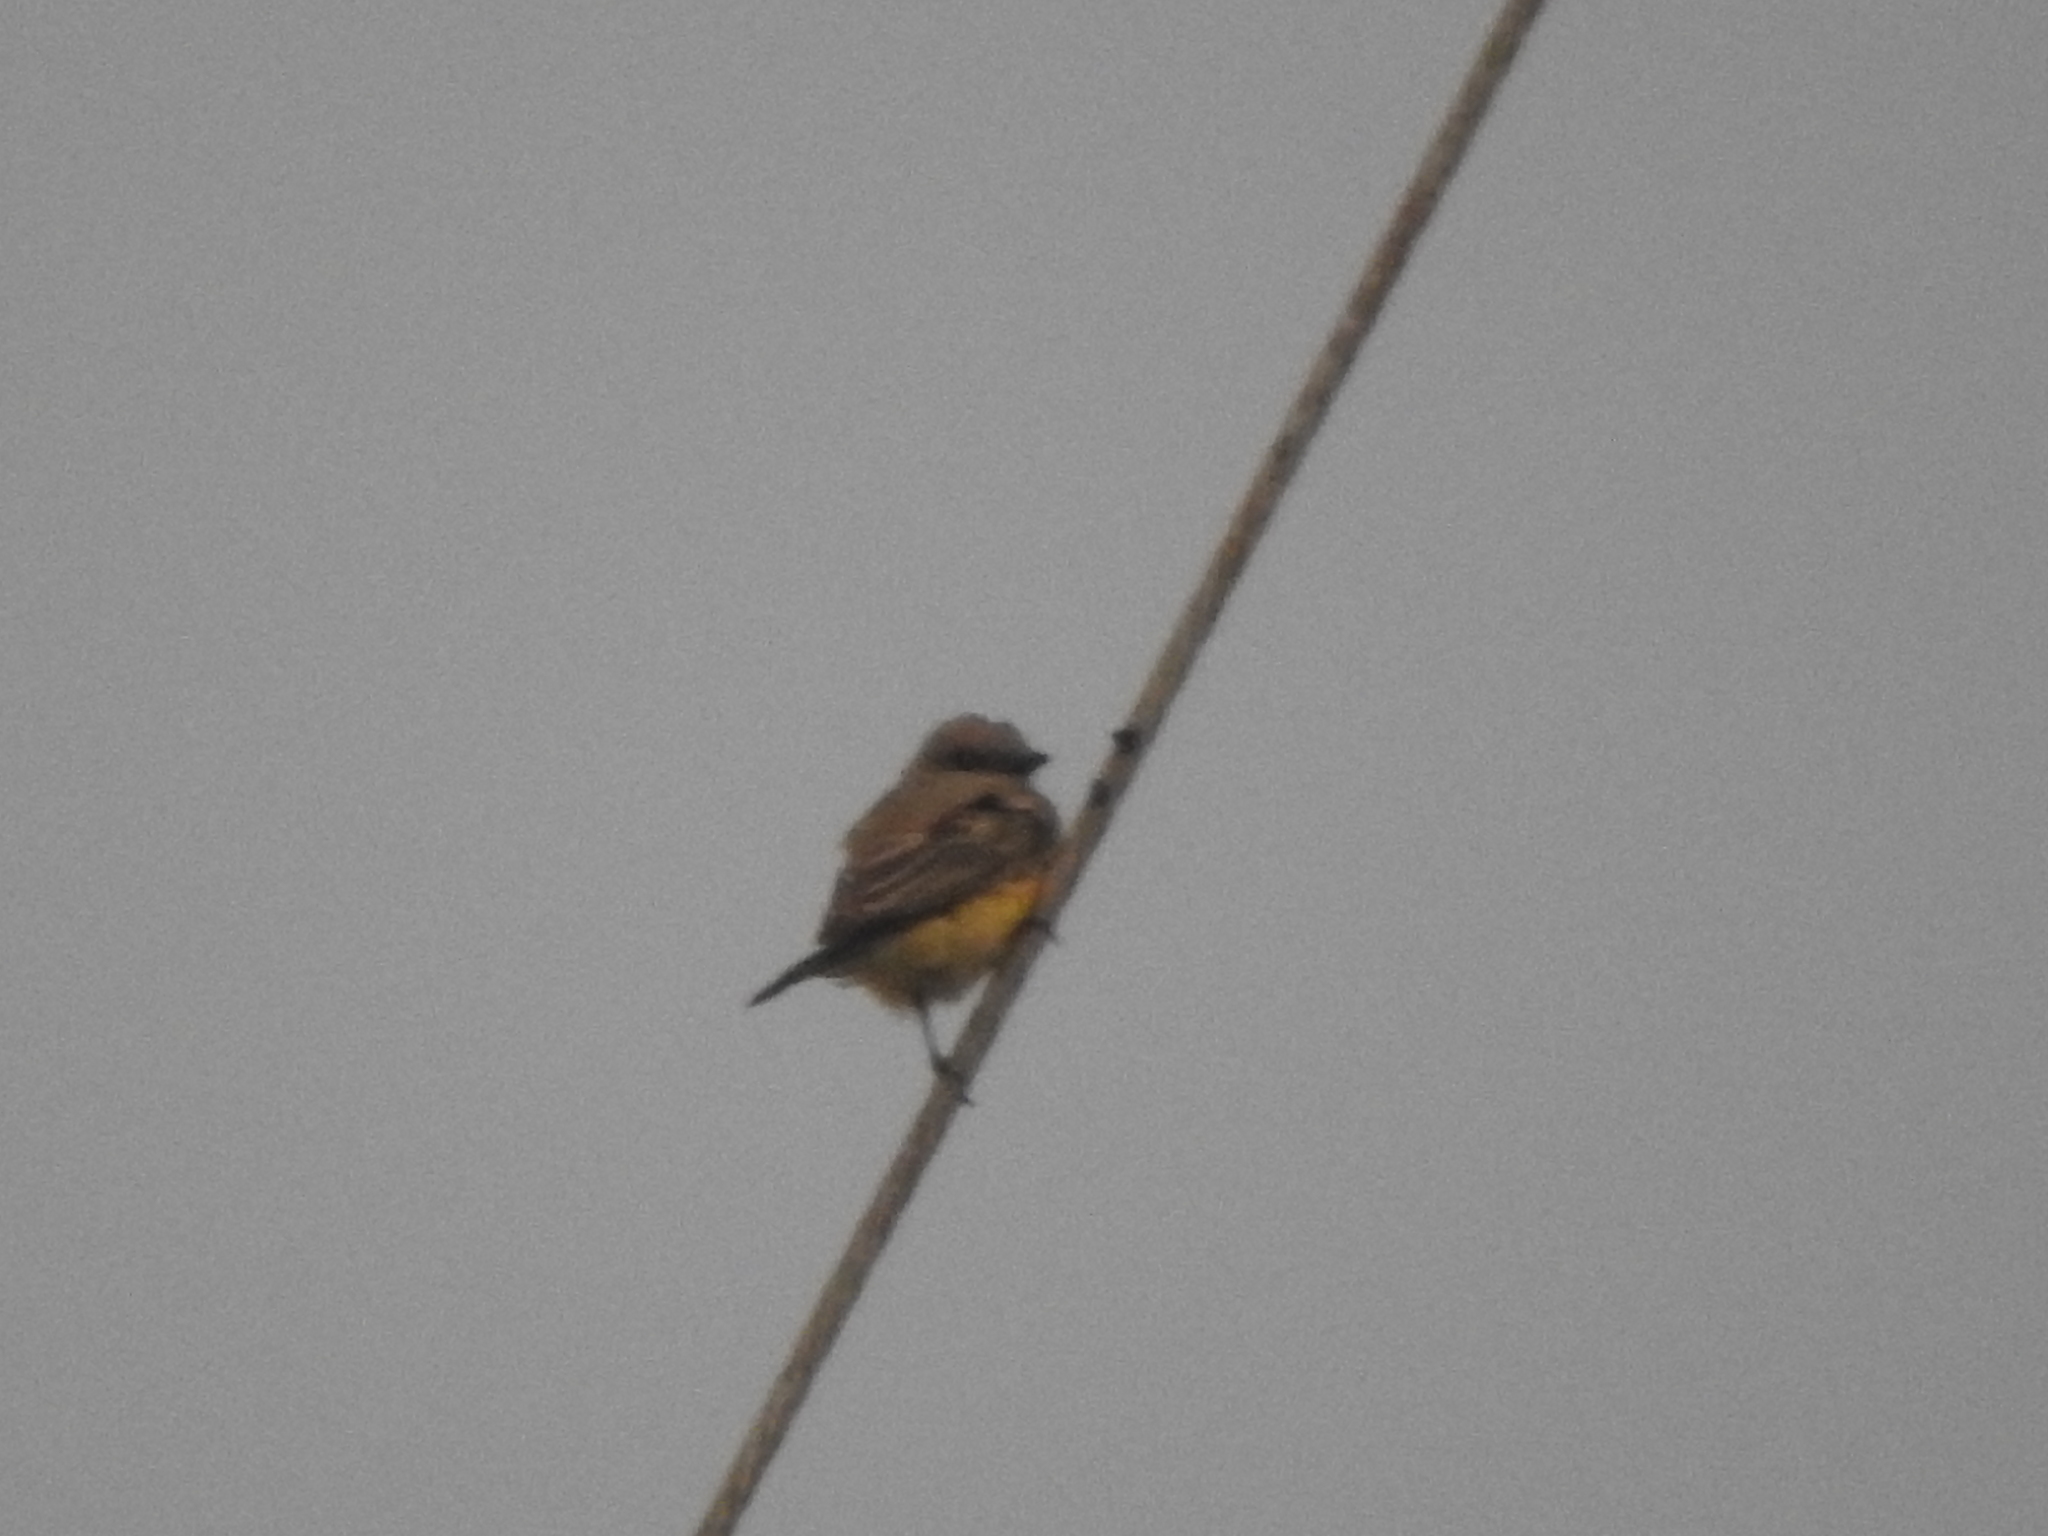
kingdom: Animalia
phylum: Chordata
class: Aves
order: Passeriformes
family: Tyrannidae
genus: Tyrannus
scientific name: Tyrannus vociferans
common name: Cassin's kingbird
